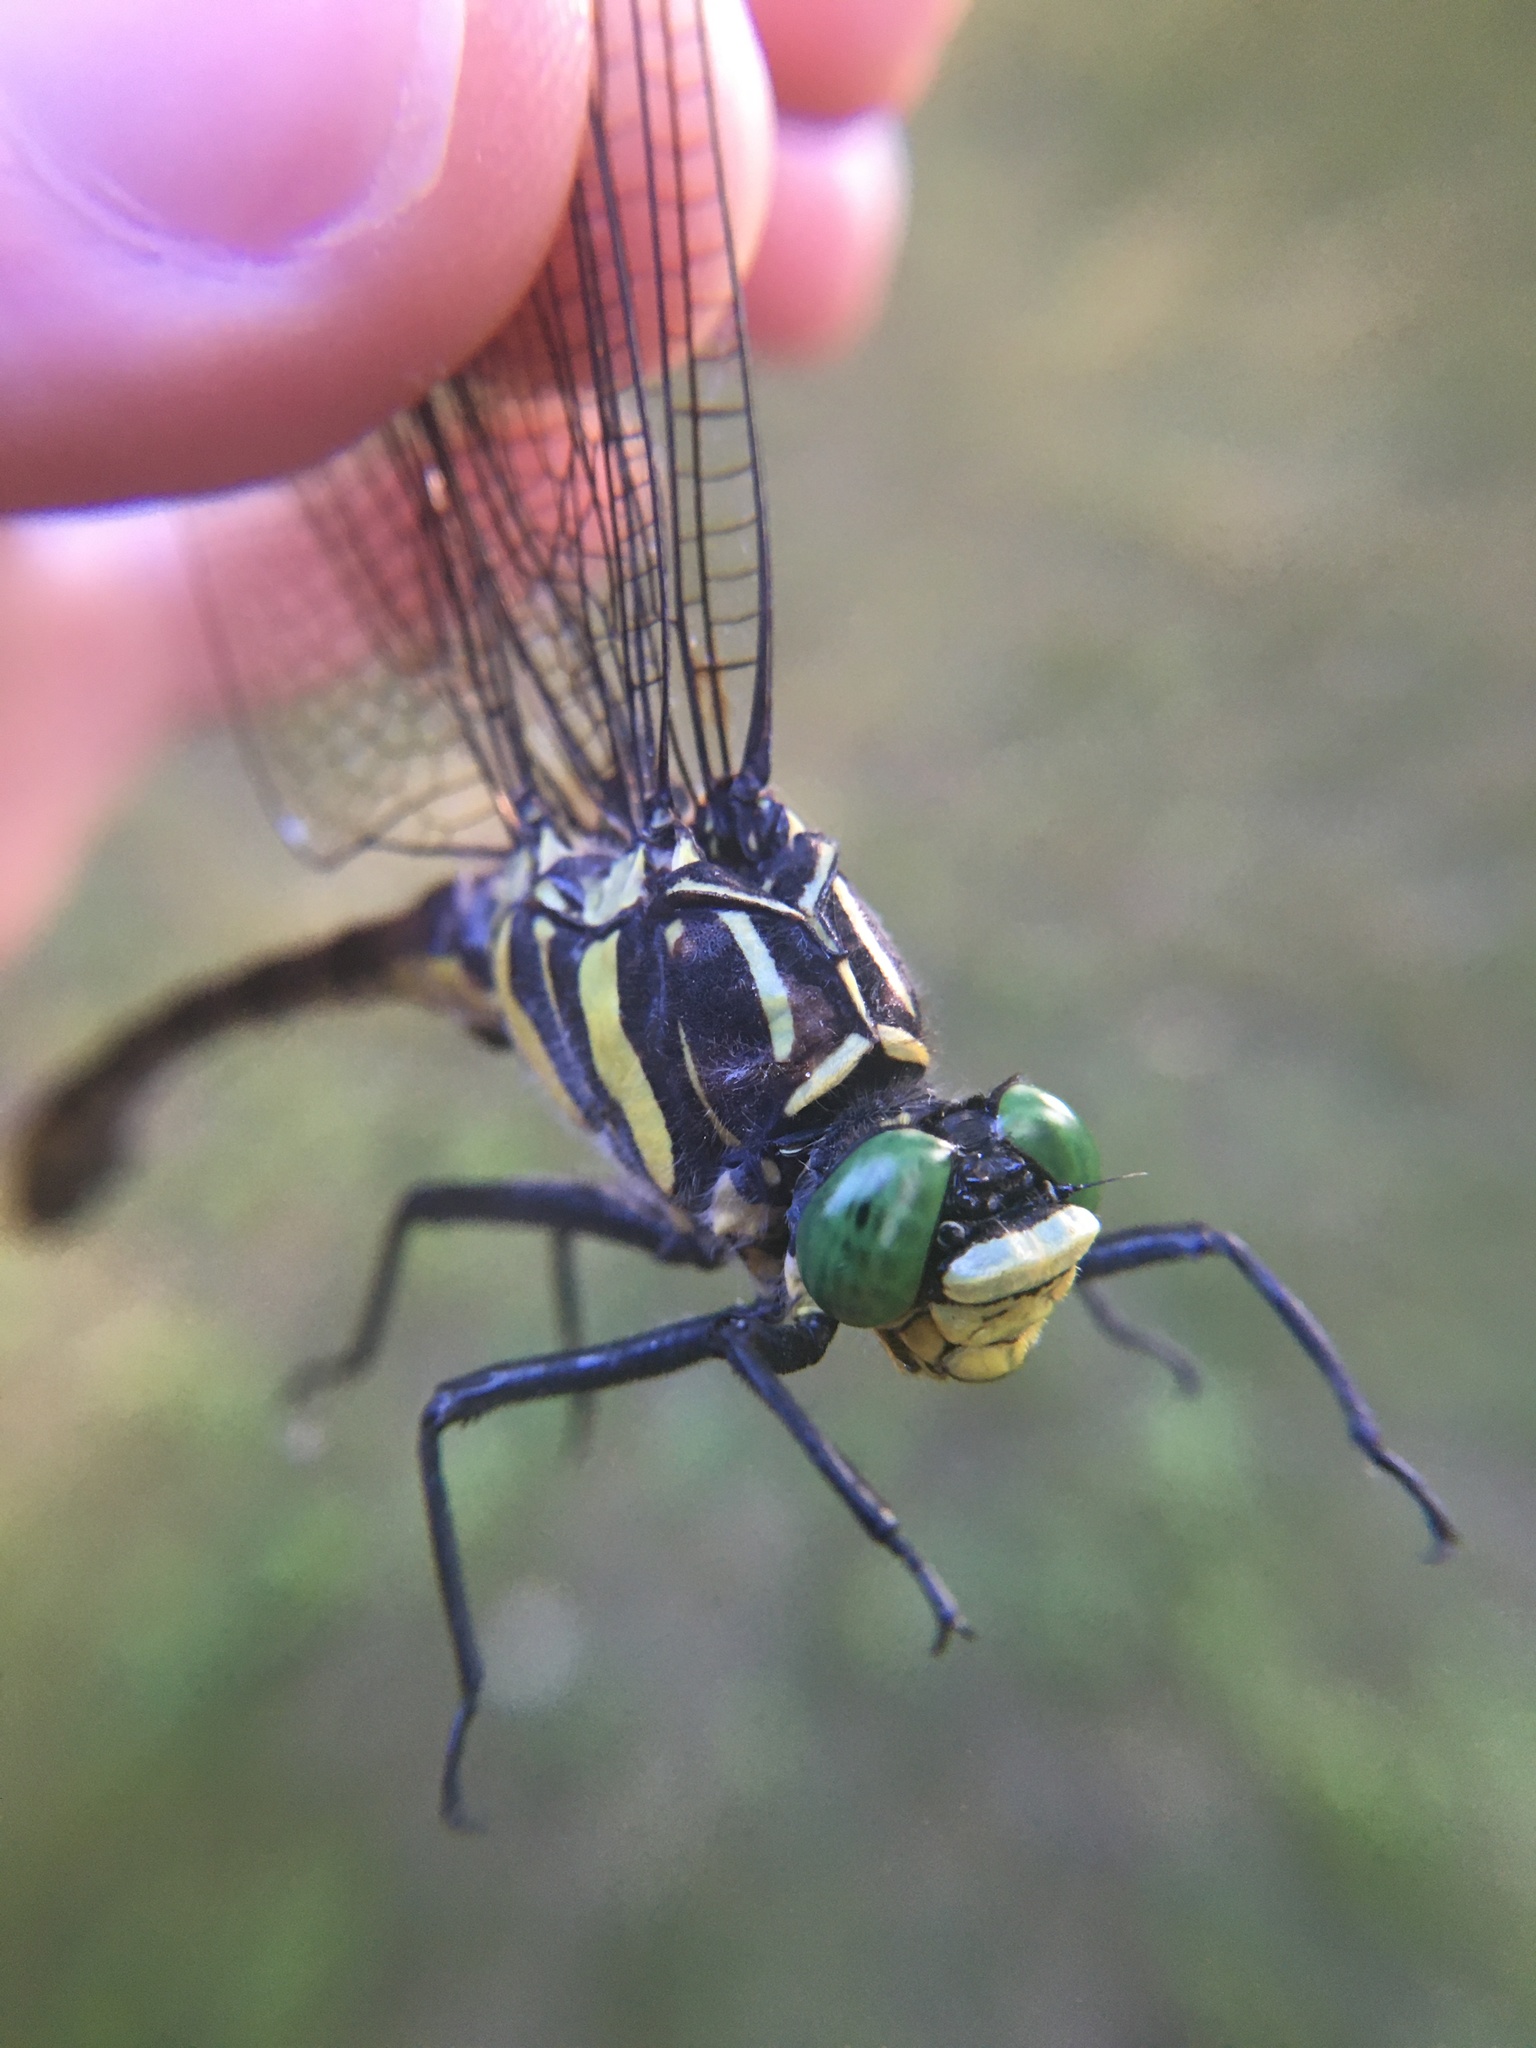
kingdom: Animalia
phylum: Arthropoda
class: Insecta
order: Odonata
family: Gomphidae
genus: Hagenius
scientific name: Hagenius brevistylus
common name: Dragonhunter
